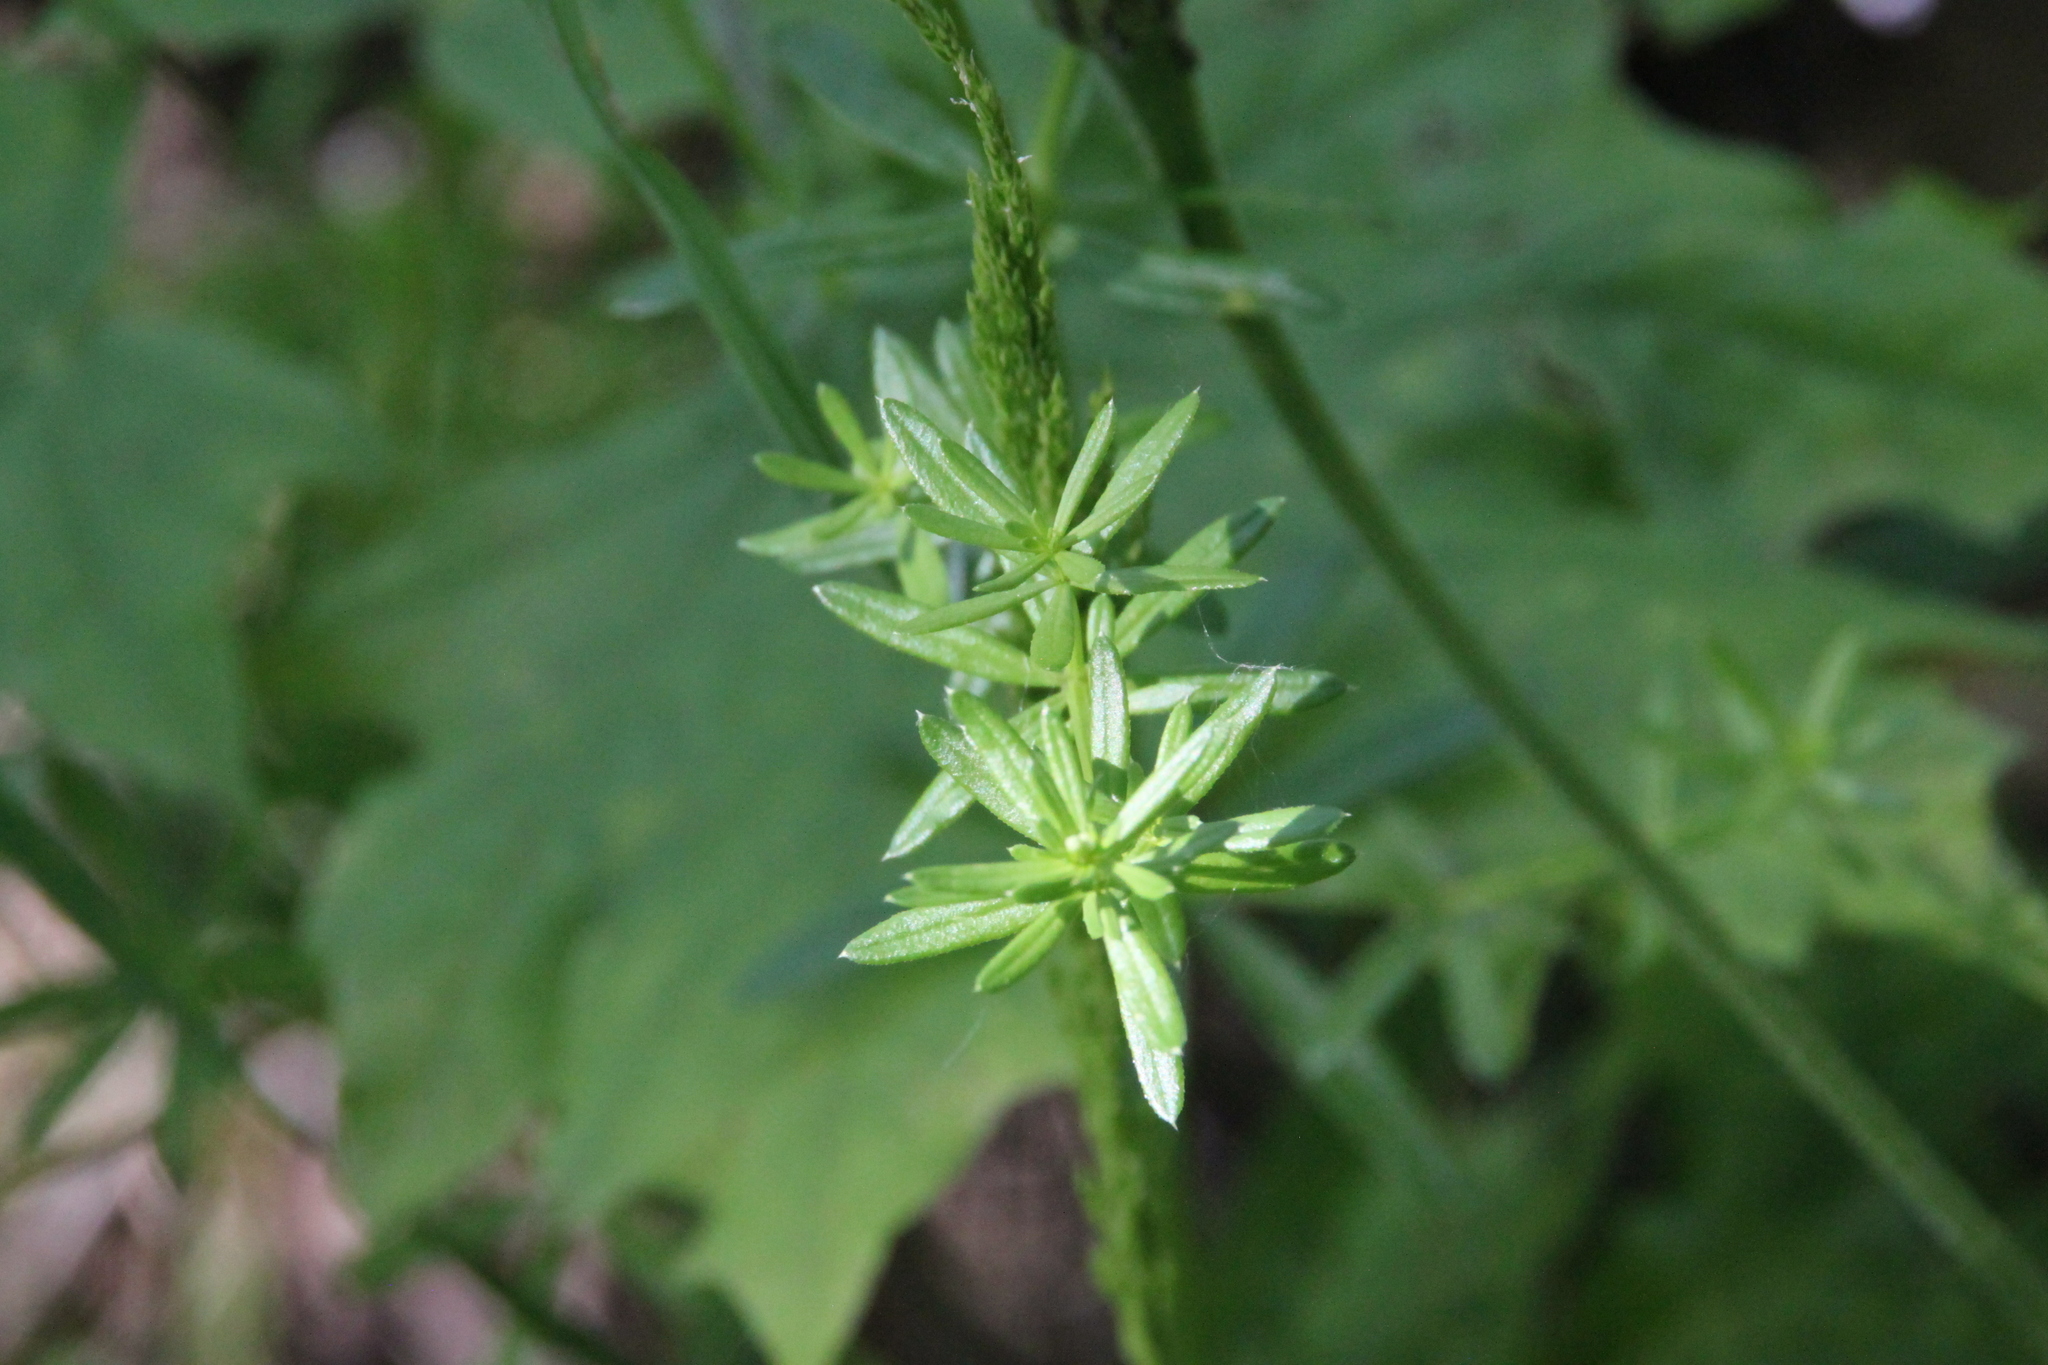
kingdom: Plantae
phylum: Tracheophyta
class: Magnoliopsida
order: Gentianales
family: Rubiaceae
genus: Galium
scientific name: Galium mollugo
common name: Hedge bedstraw
